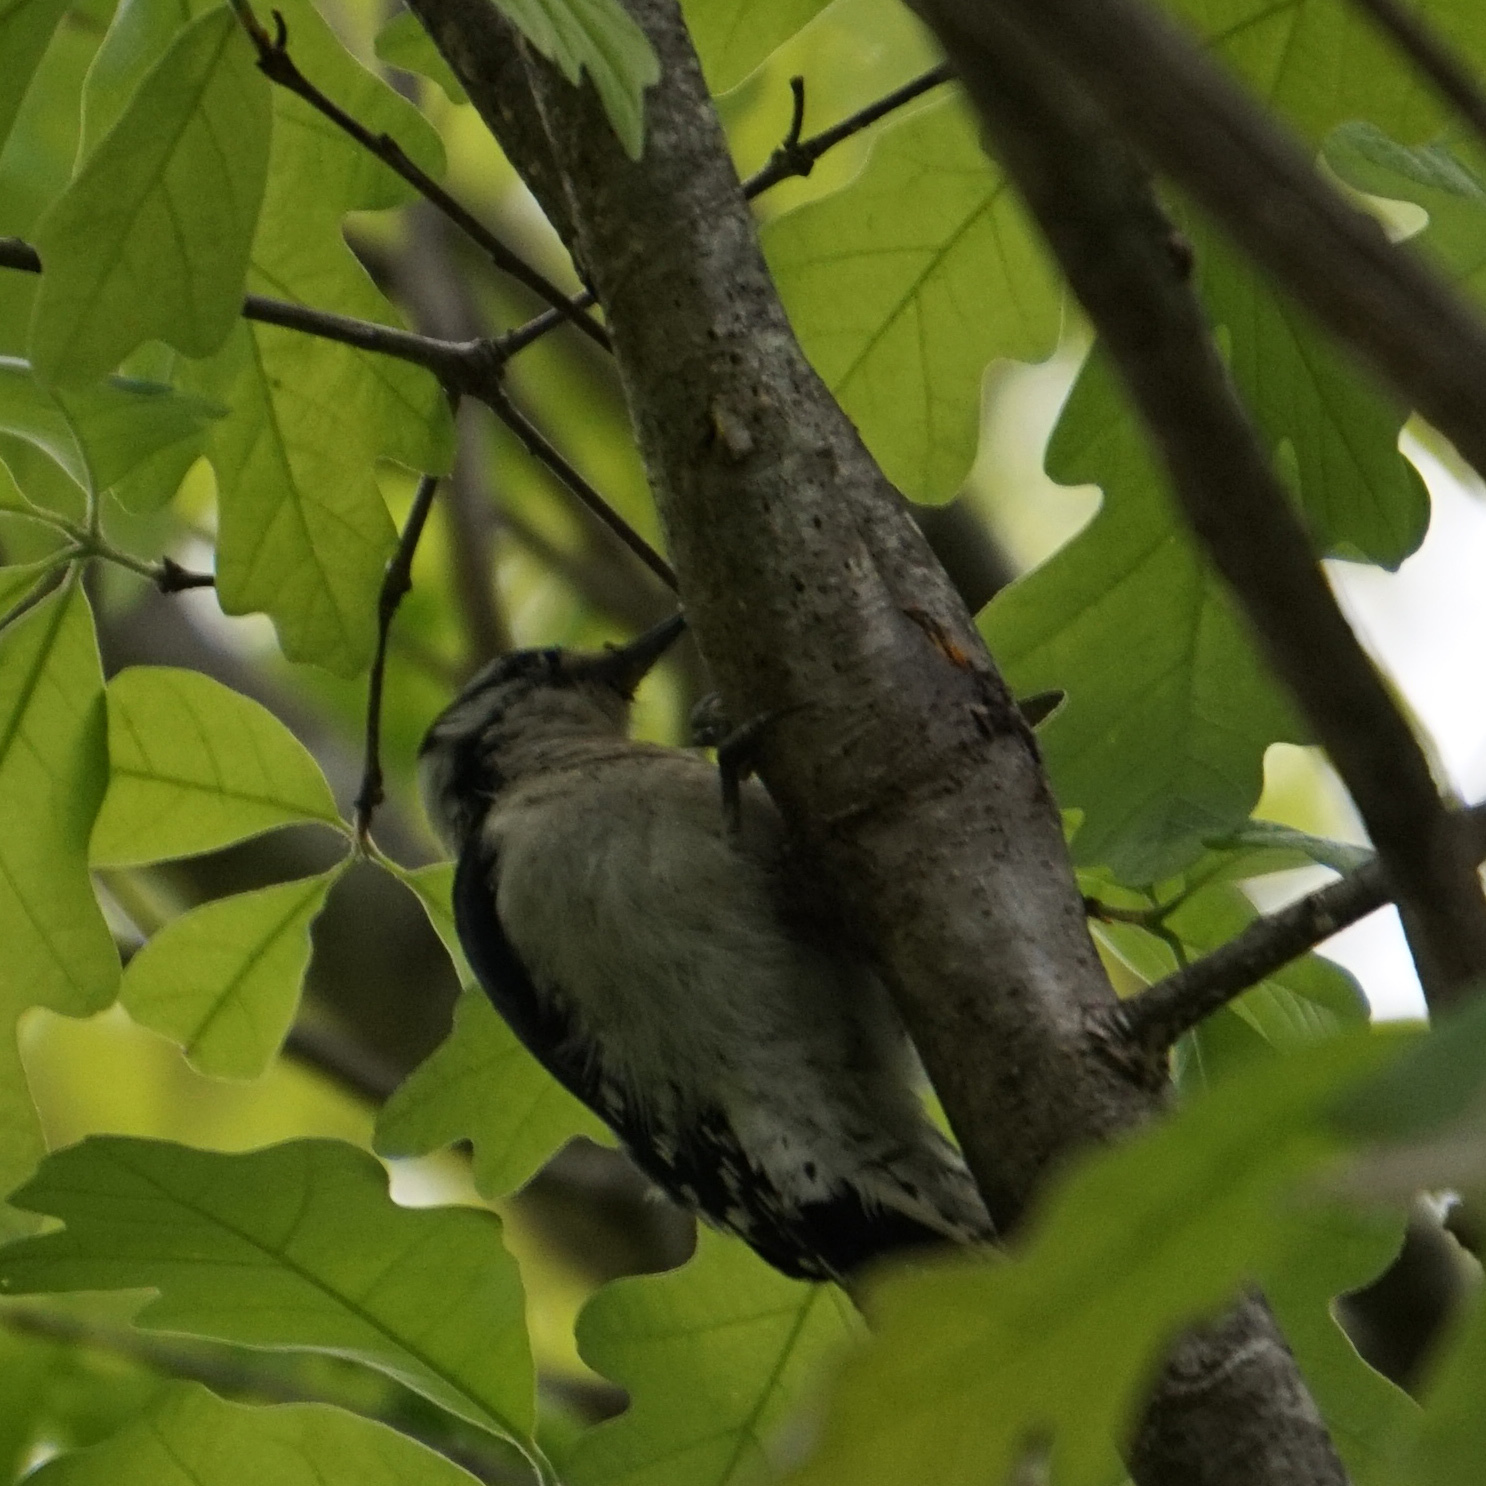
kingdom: Animalia
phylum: Chordata
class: Aves
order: Piciformes
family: Picidae
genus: Dryobates
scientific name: Dryobates pubescens
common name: Downy woodpecker
